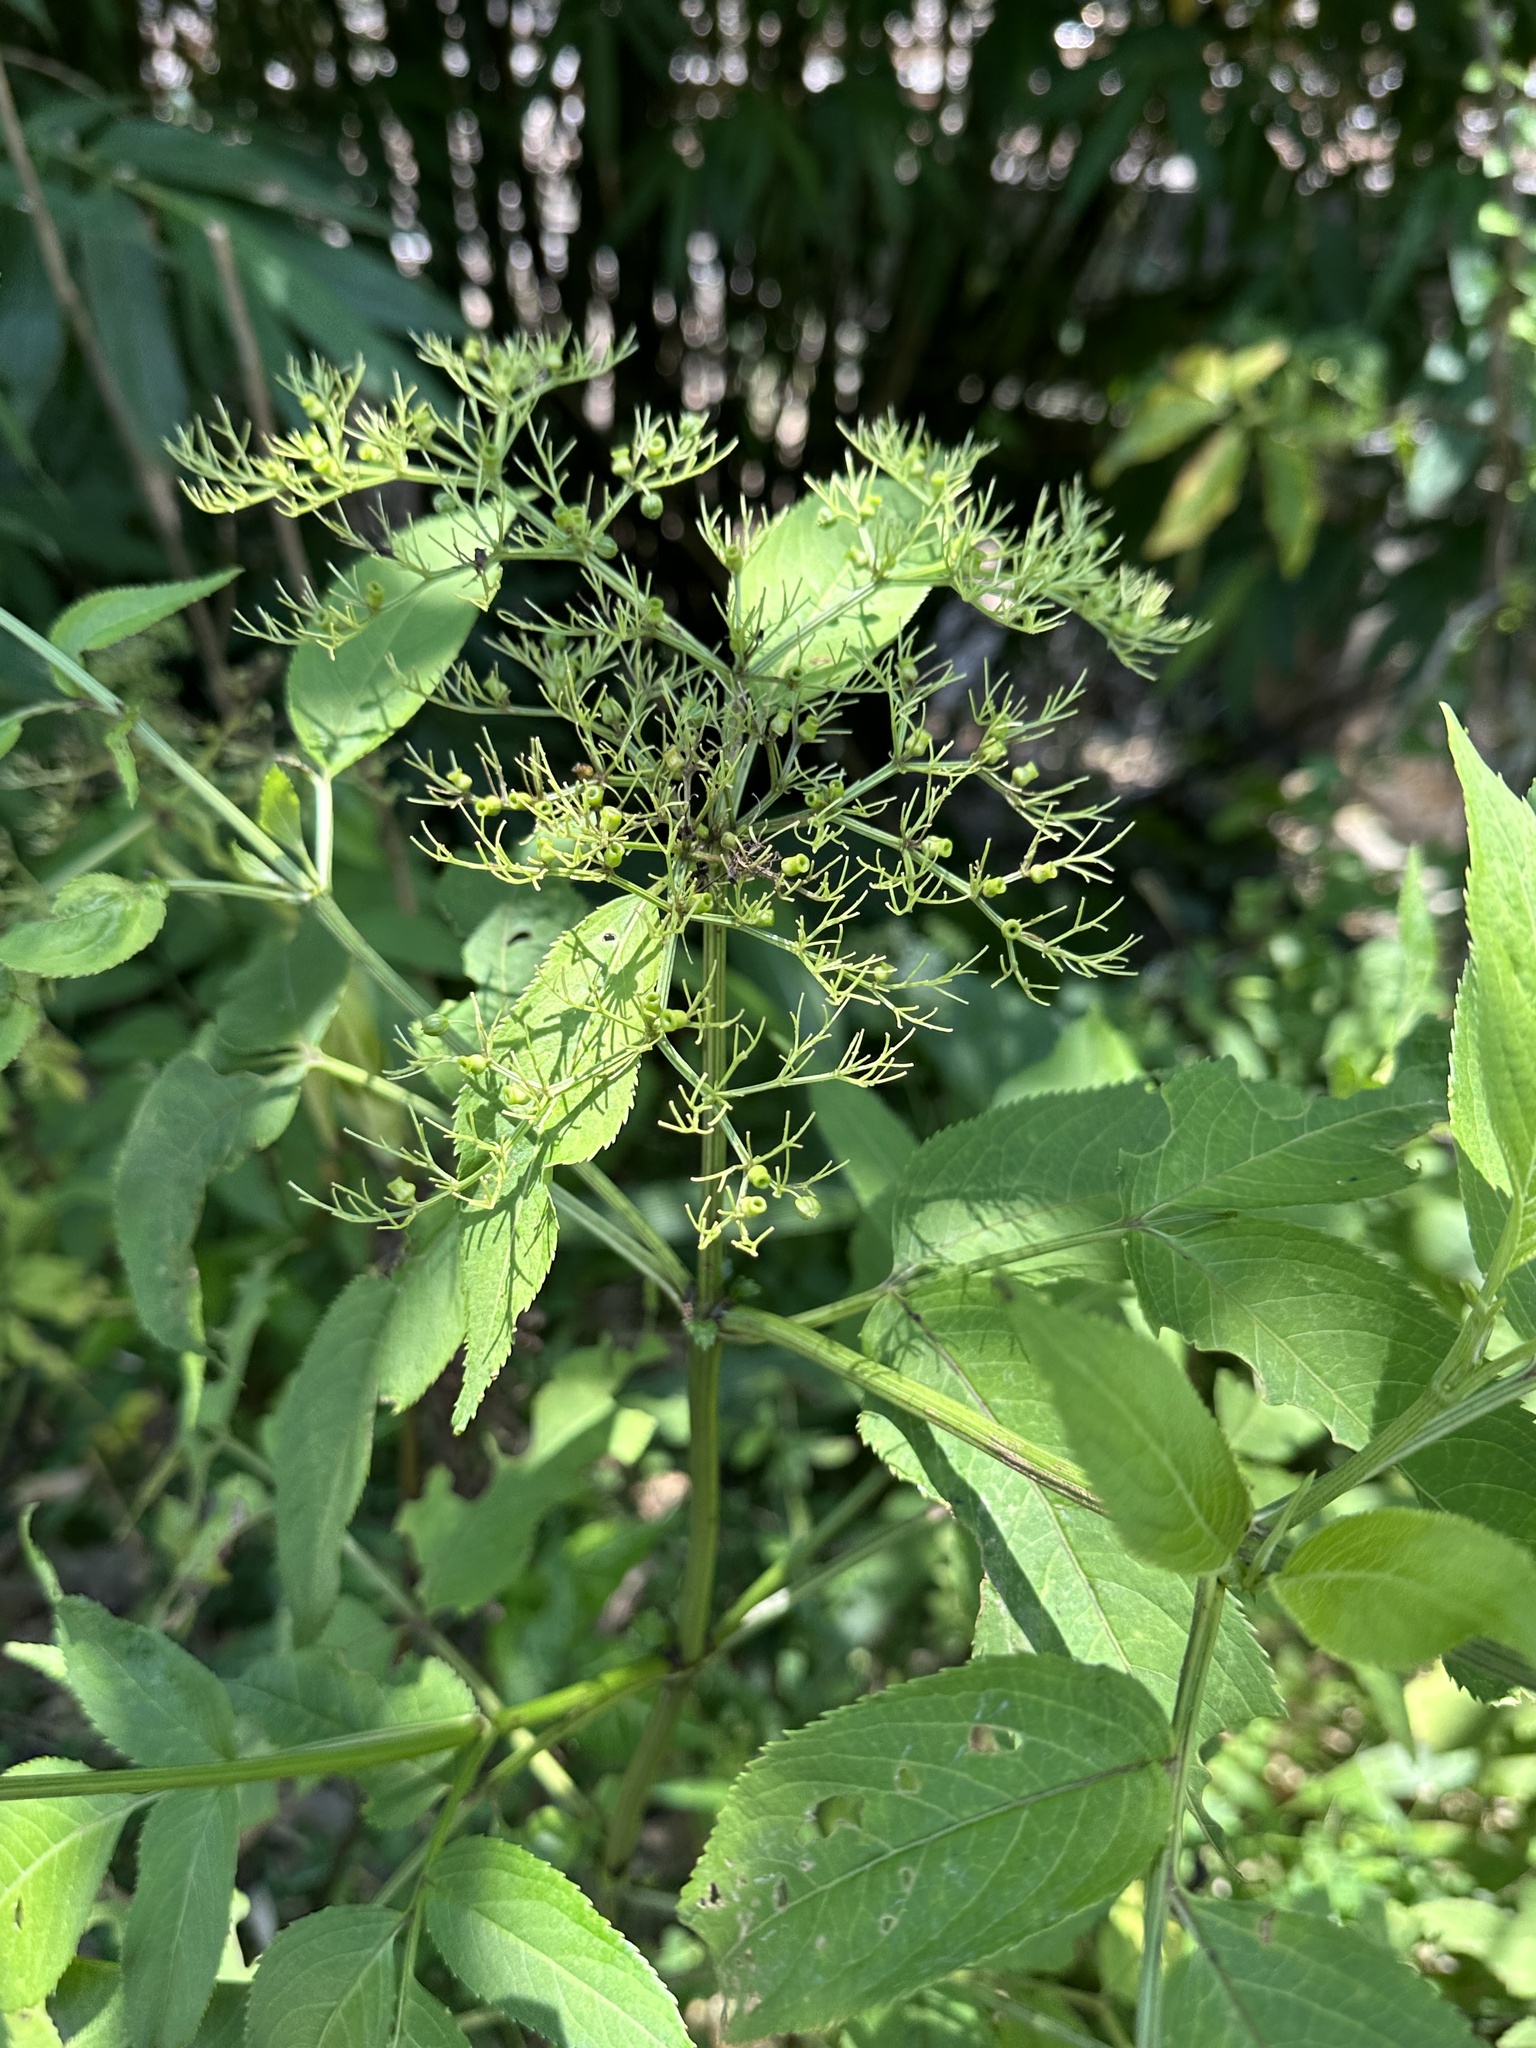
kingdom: Plantae
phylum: Tracheophyta
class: Magnoliopsida
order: Dipsacales
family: Viburnaceae
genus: Sambucus
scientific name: Sambucus javanica
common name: Chinese elder
